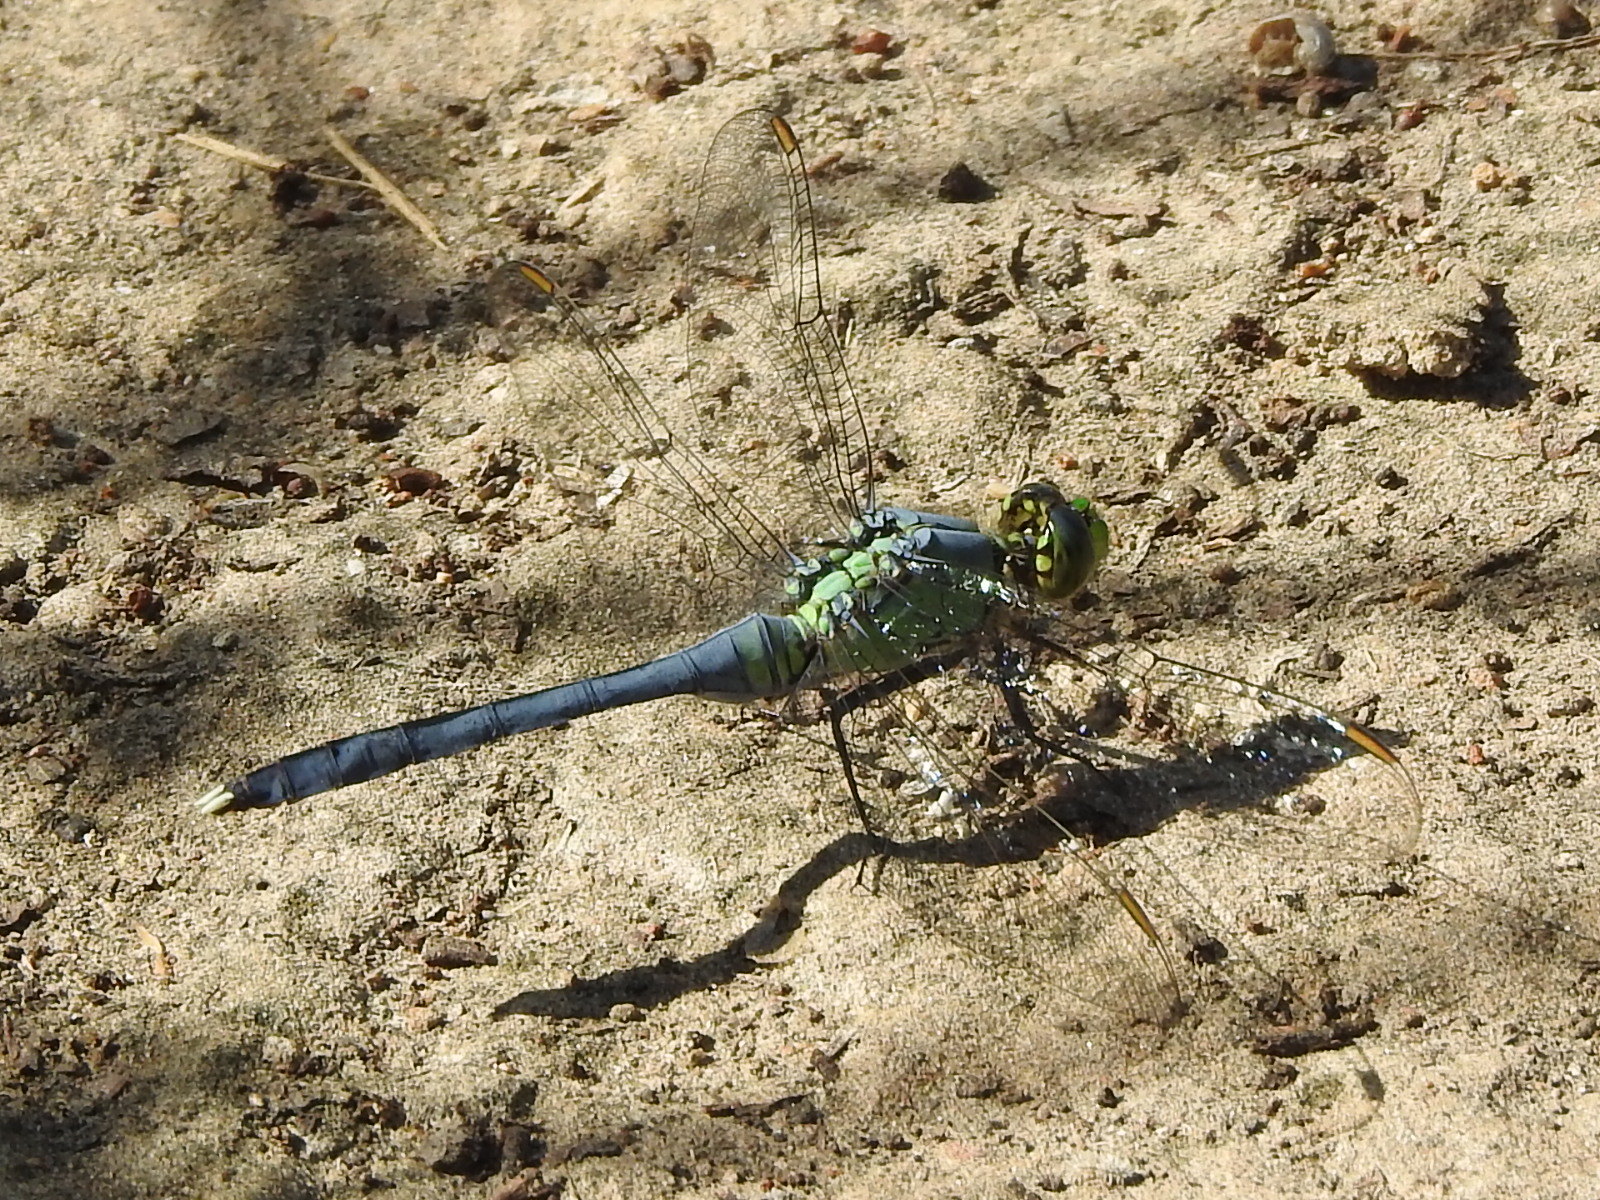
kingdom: Animalia
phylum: Arthropoda
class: Insecta
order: Odonata
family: Libellulidae
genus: Erythemis
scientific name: Erythemis simplicicollis
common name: Eastern pondhawk
